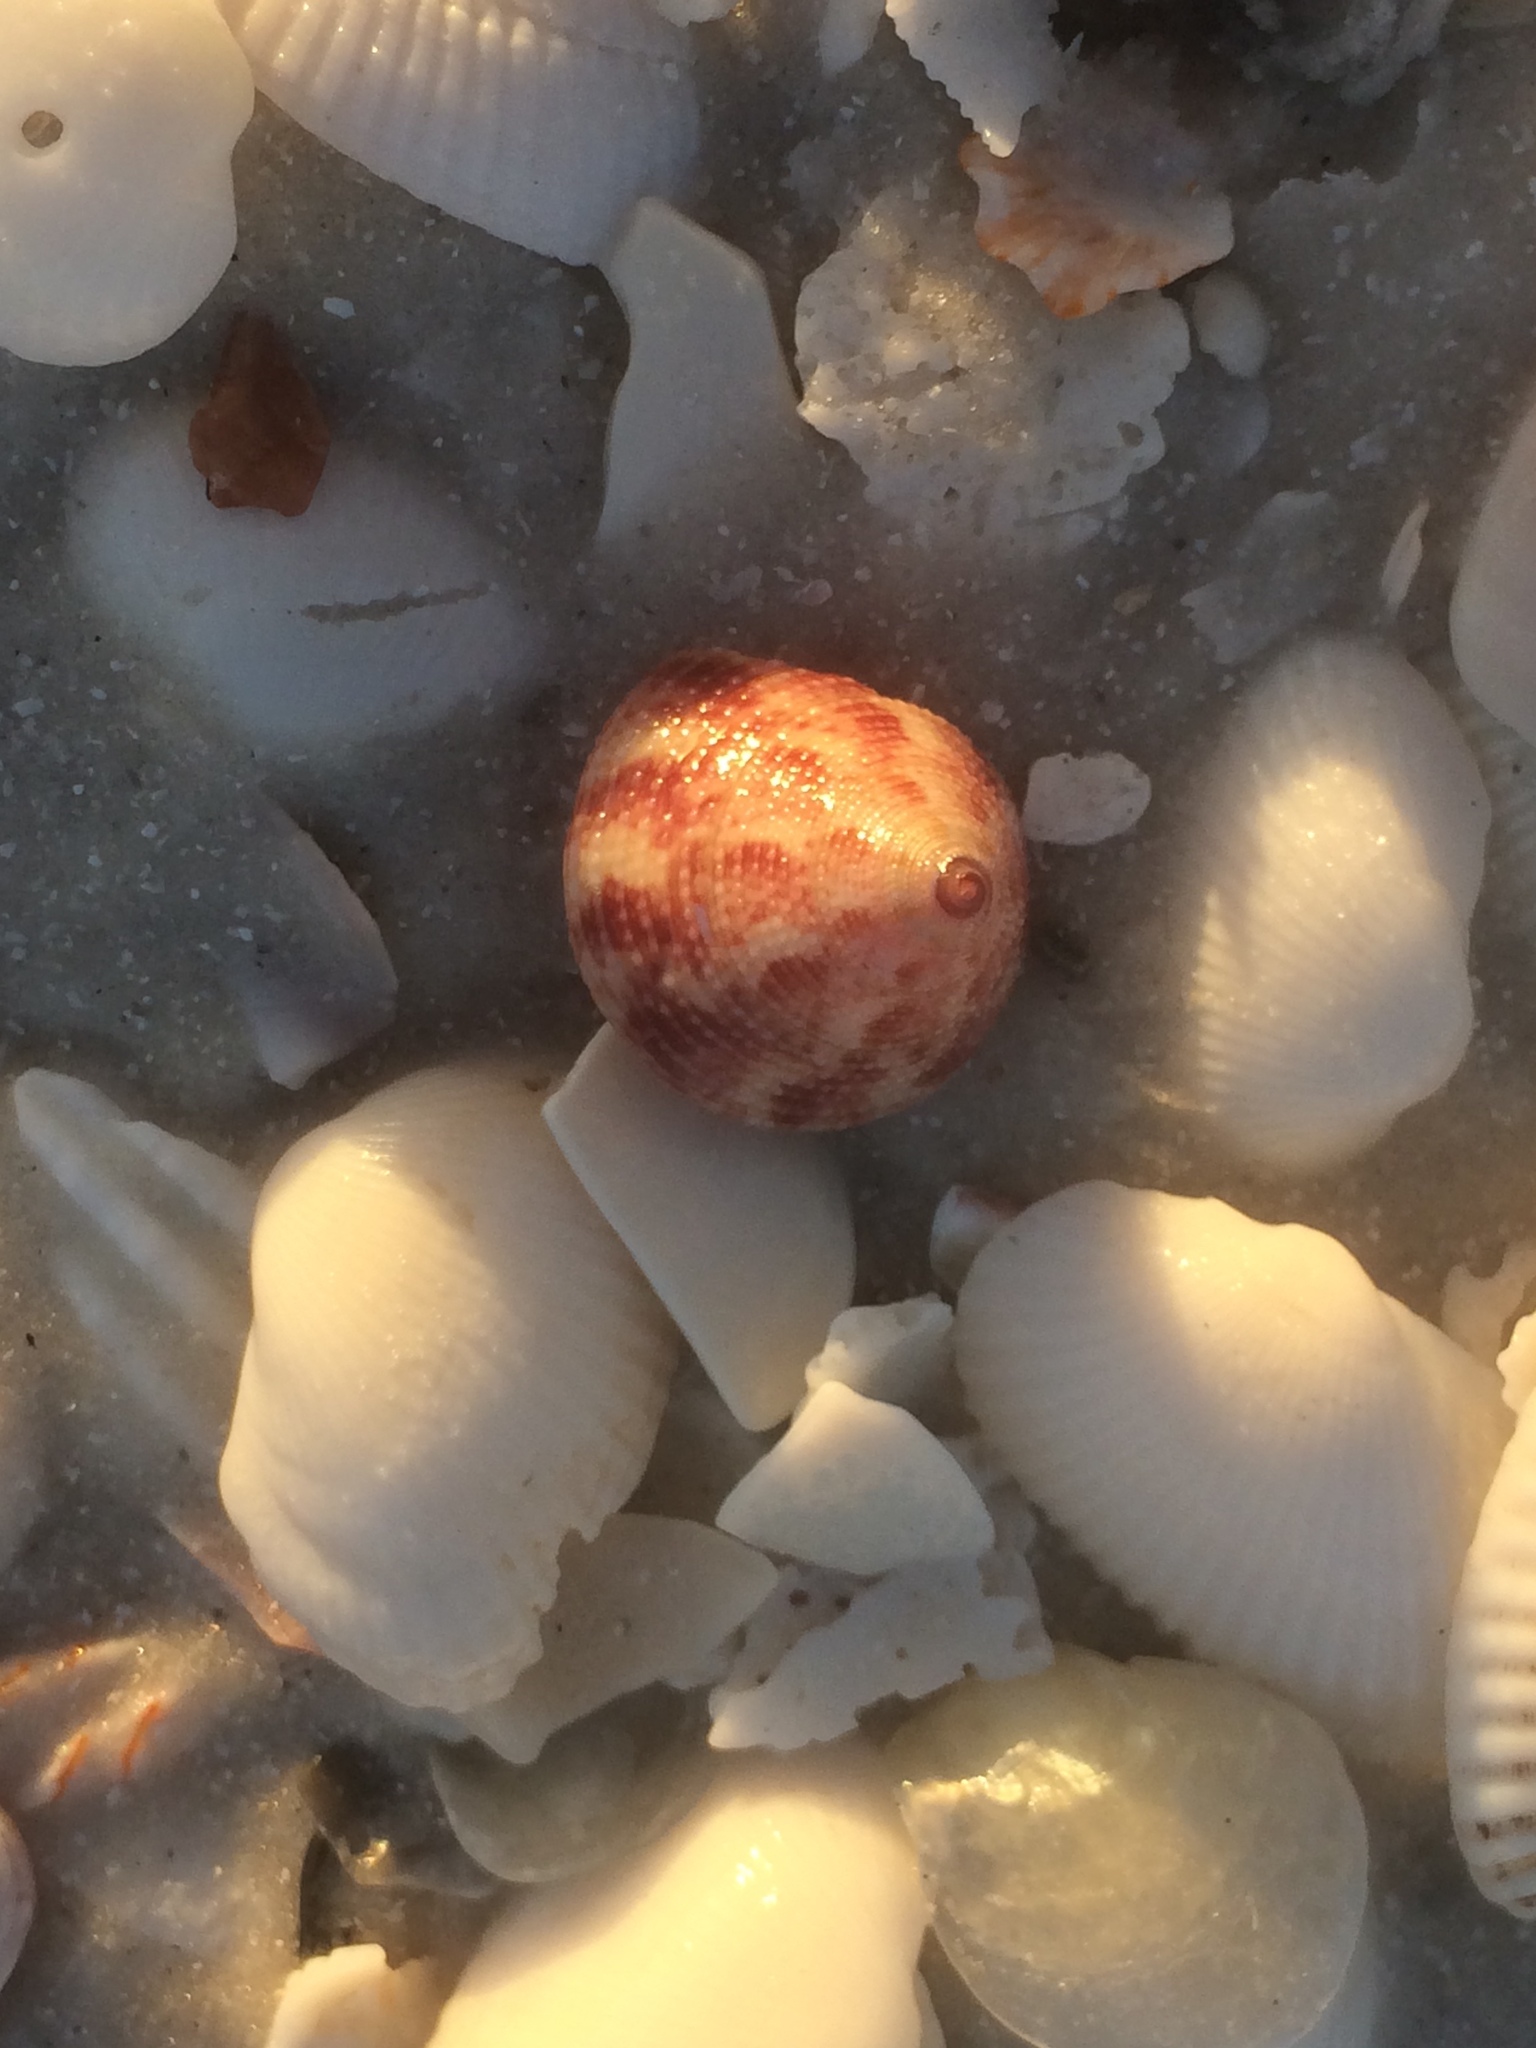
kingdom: Animalia
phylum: Mollusca
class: Gastropoda
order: Trochida
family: Calliostomatidae
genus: Calliostoma
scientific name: Calliostoma tampaense
